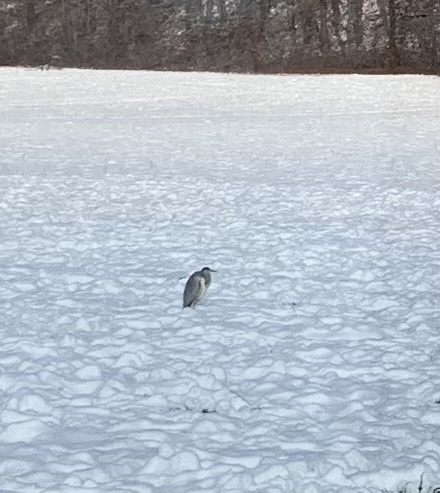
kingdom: Animalia
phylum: Chordata
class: Aves
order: Pelecaniformes
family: Ardeidae
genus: Ardea
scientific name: Ardea cinerea
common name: Grey heron
